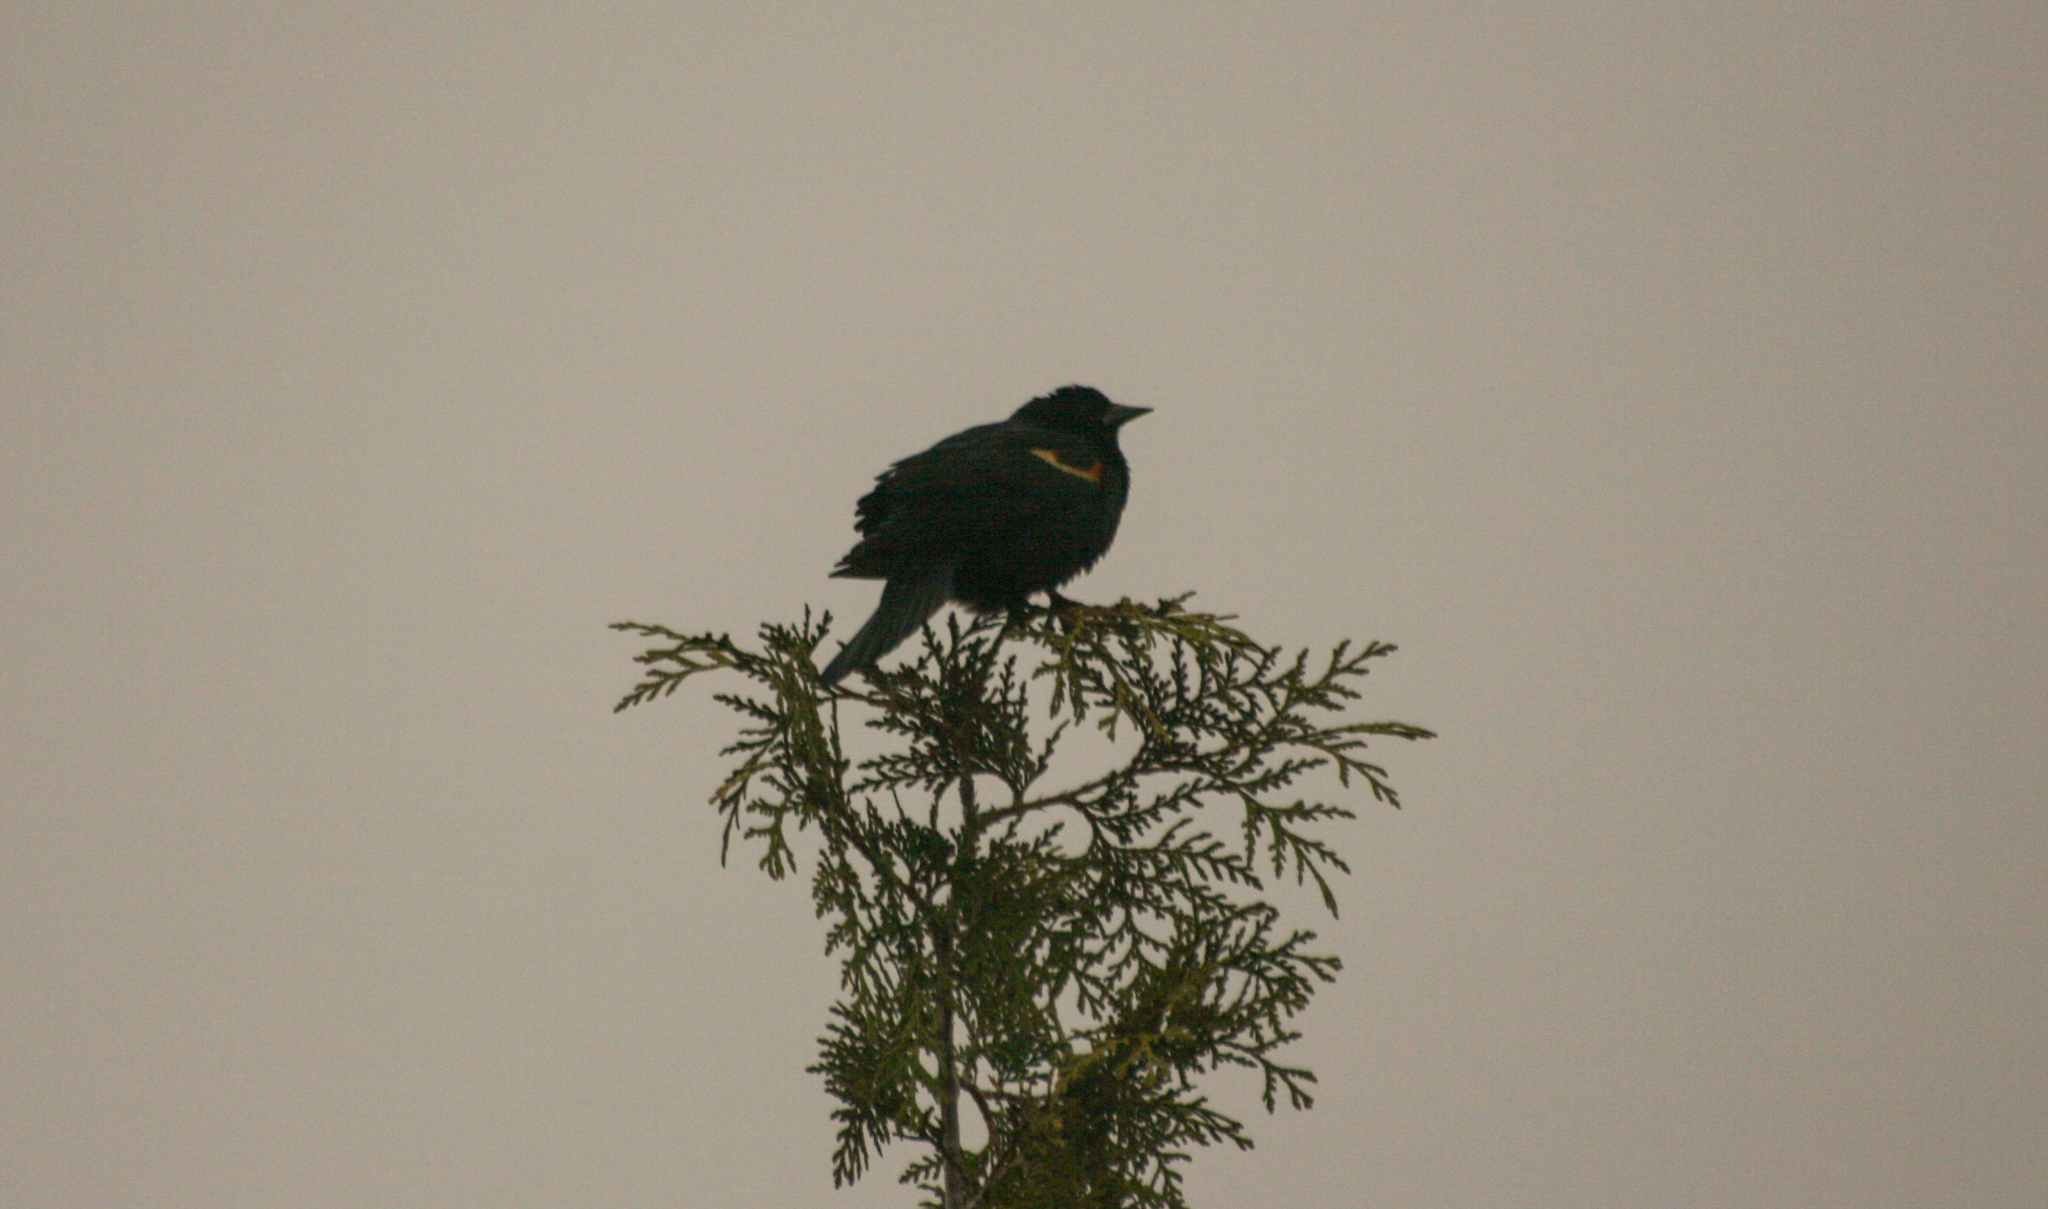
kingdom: Animalia
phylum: Chordata
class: Aves
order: Passeriformes
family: Icteridae
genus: Agelaius
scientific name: Agelaius phoeniceus
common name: Red-winged blackbird
